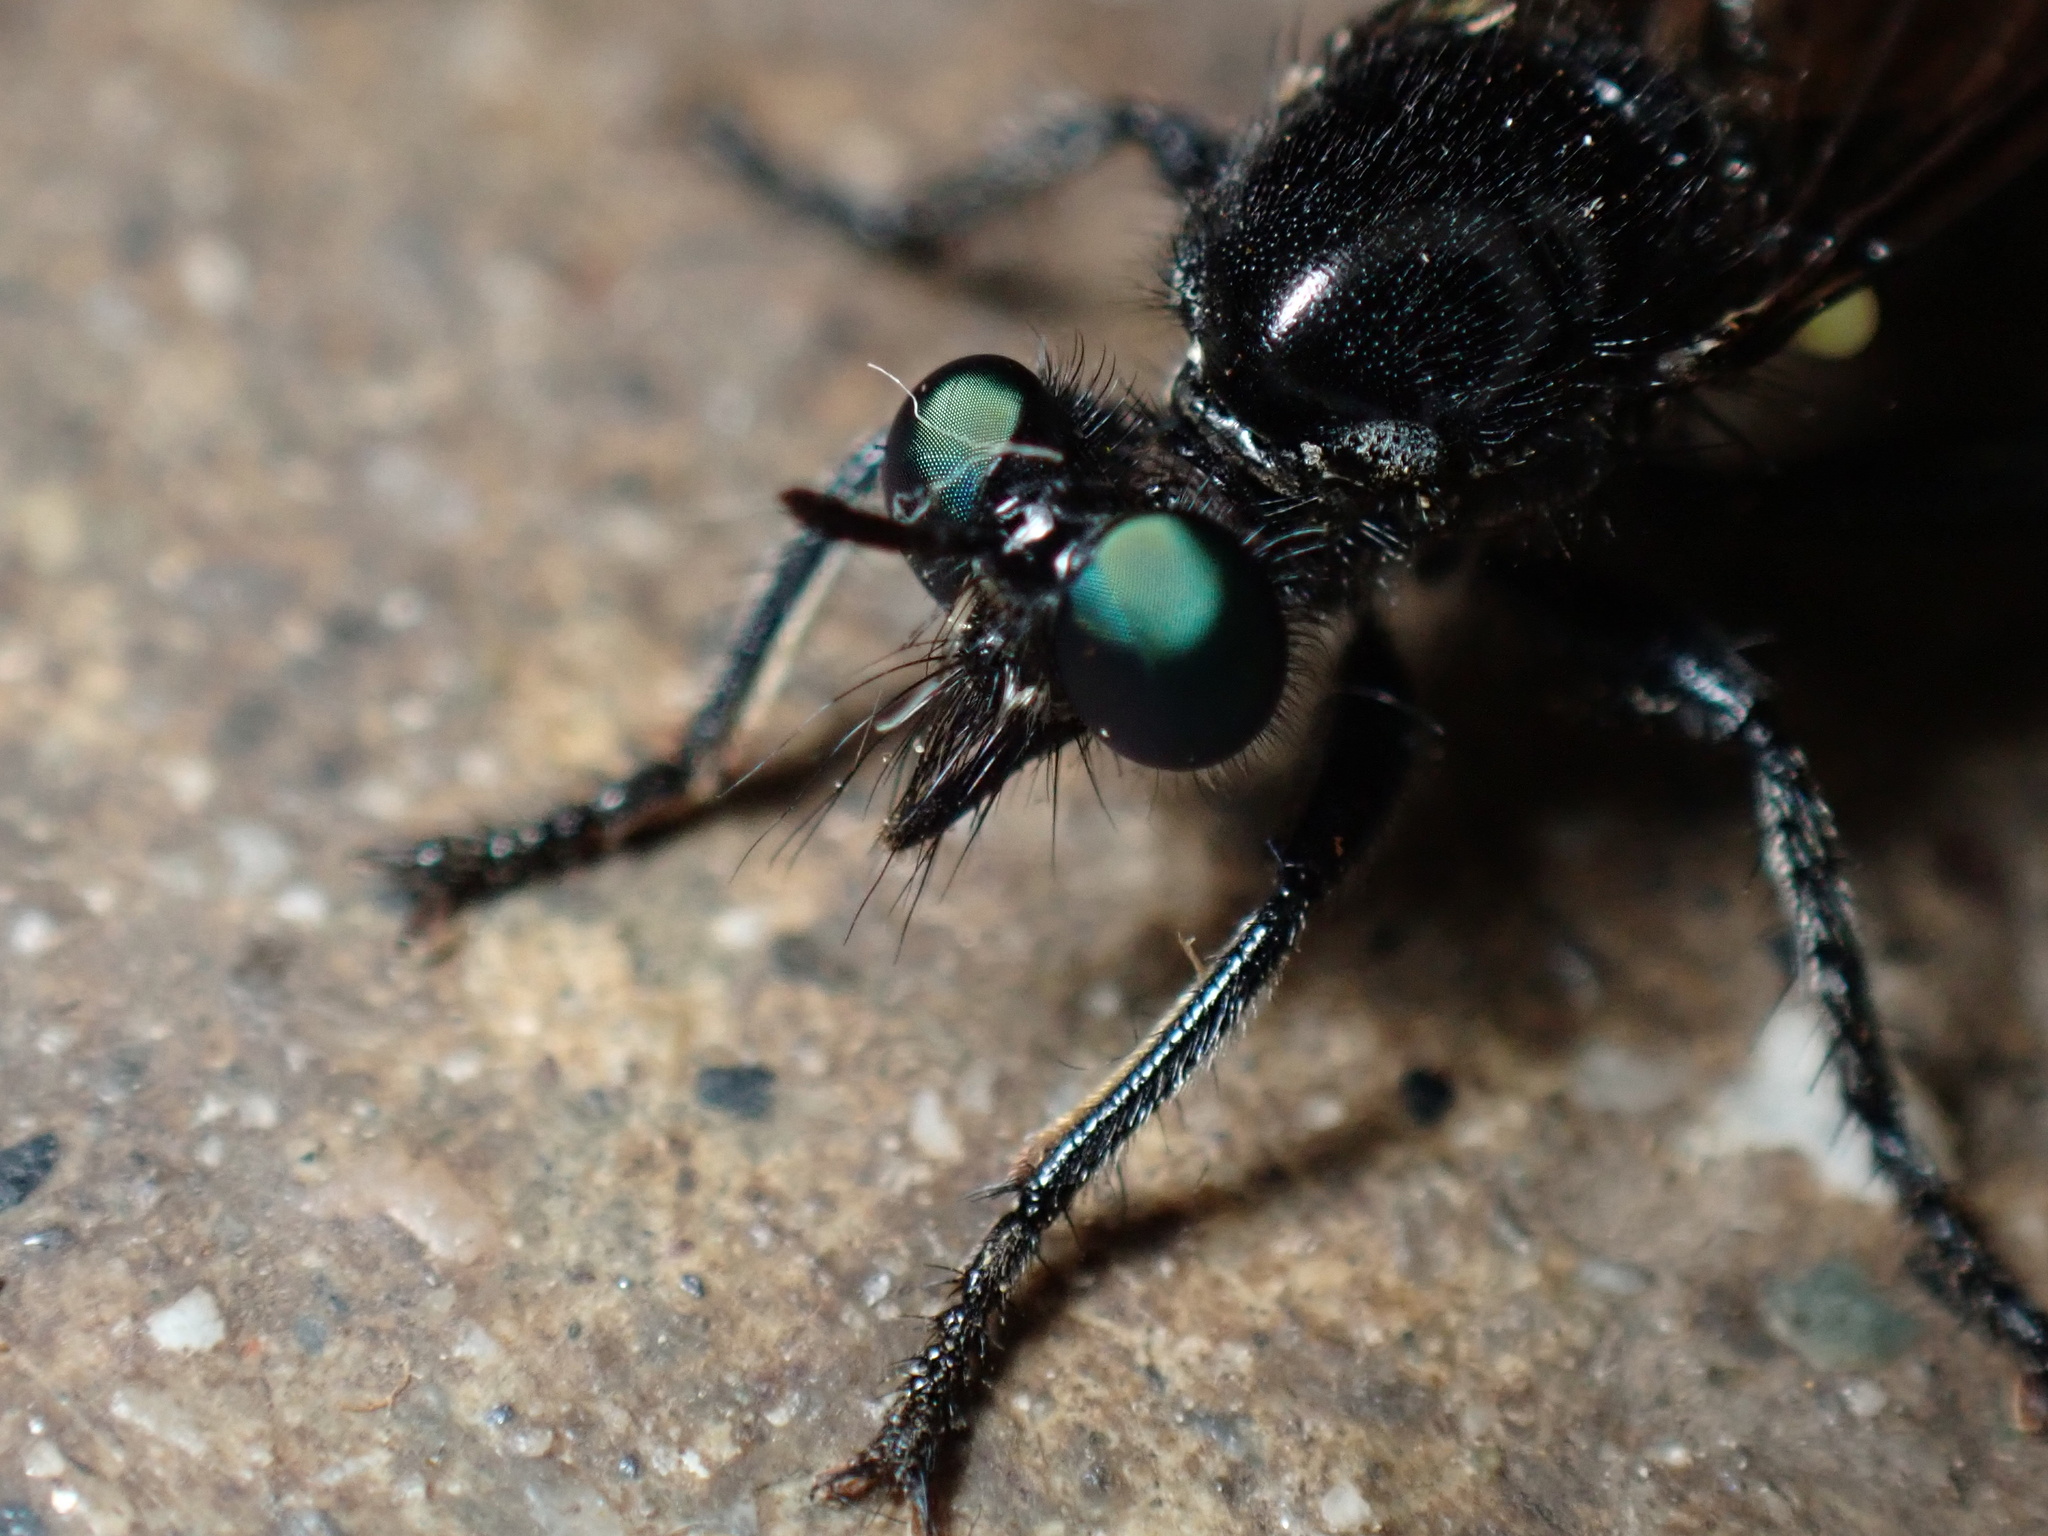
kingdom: Animalia
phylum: Arthropoda
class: Insecta
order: Diptera
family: Asilidae
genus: Laphria
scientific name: Laphria franciscana
